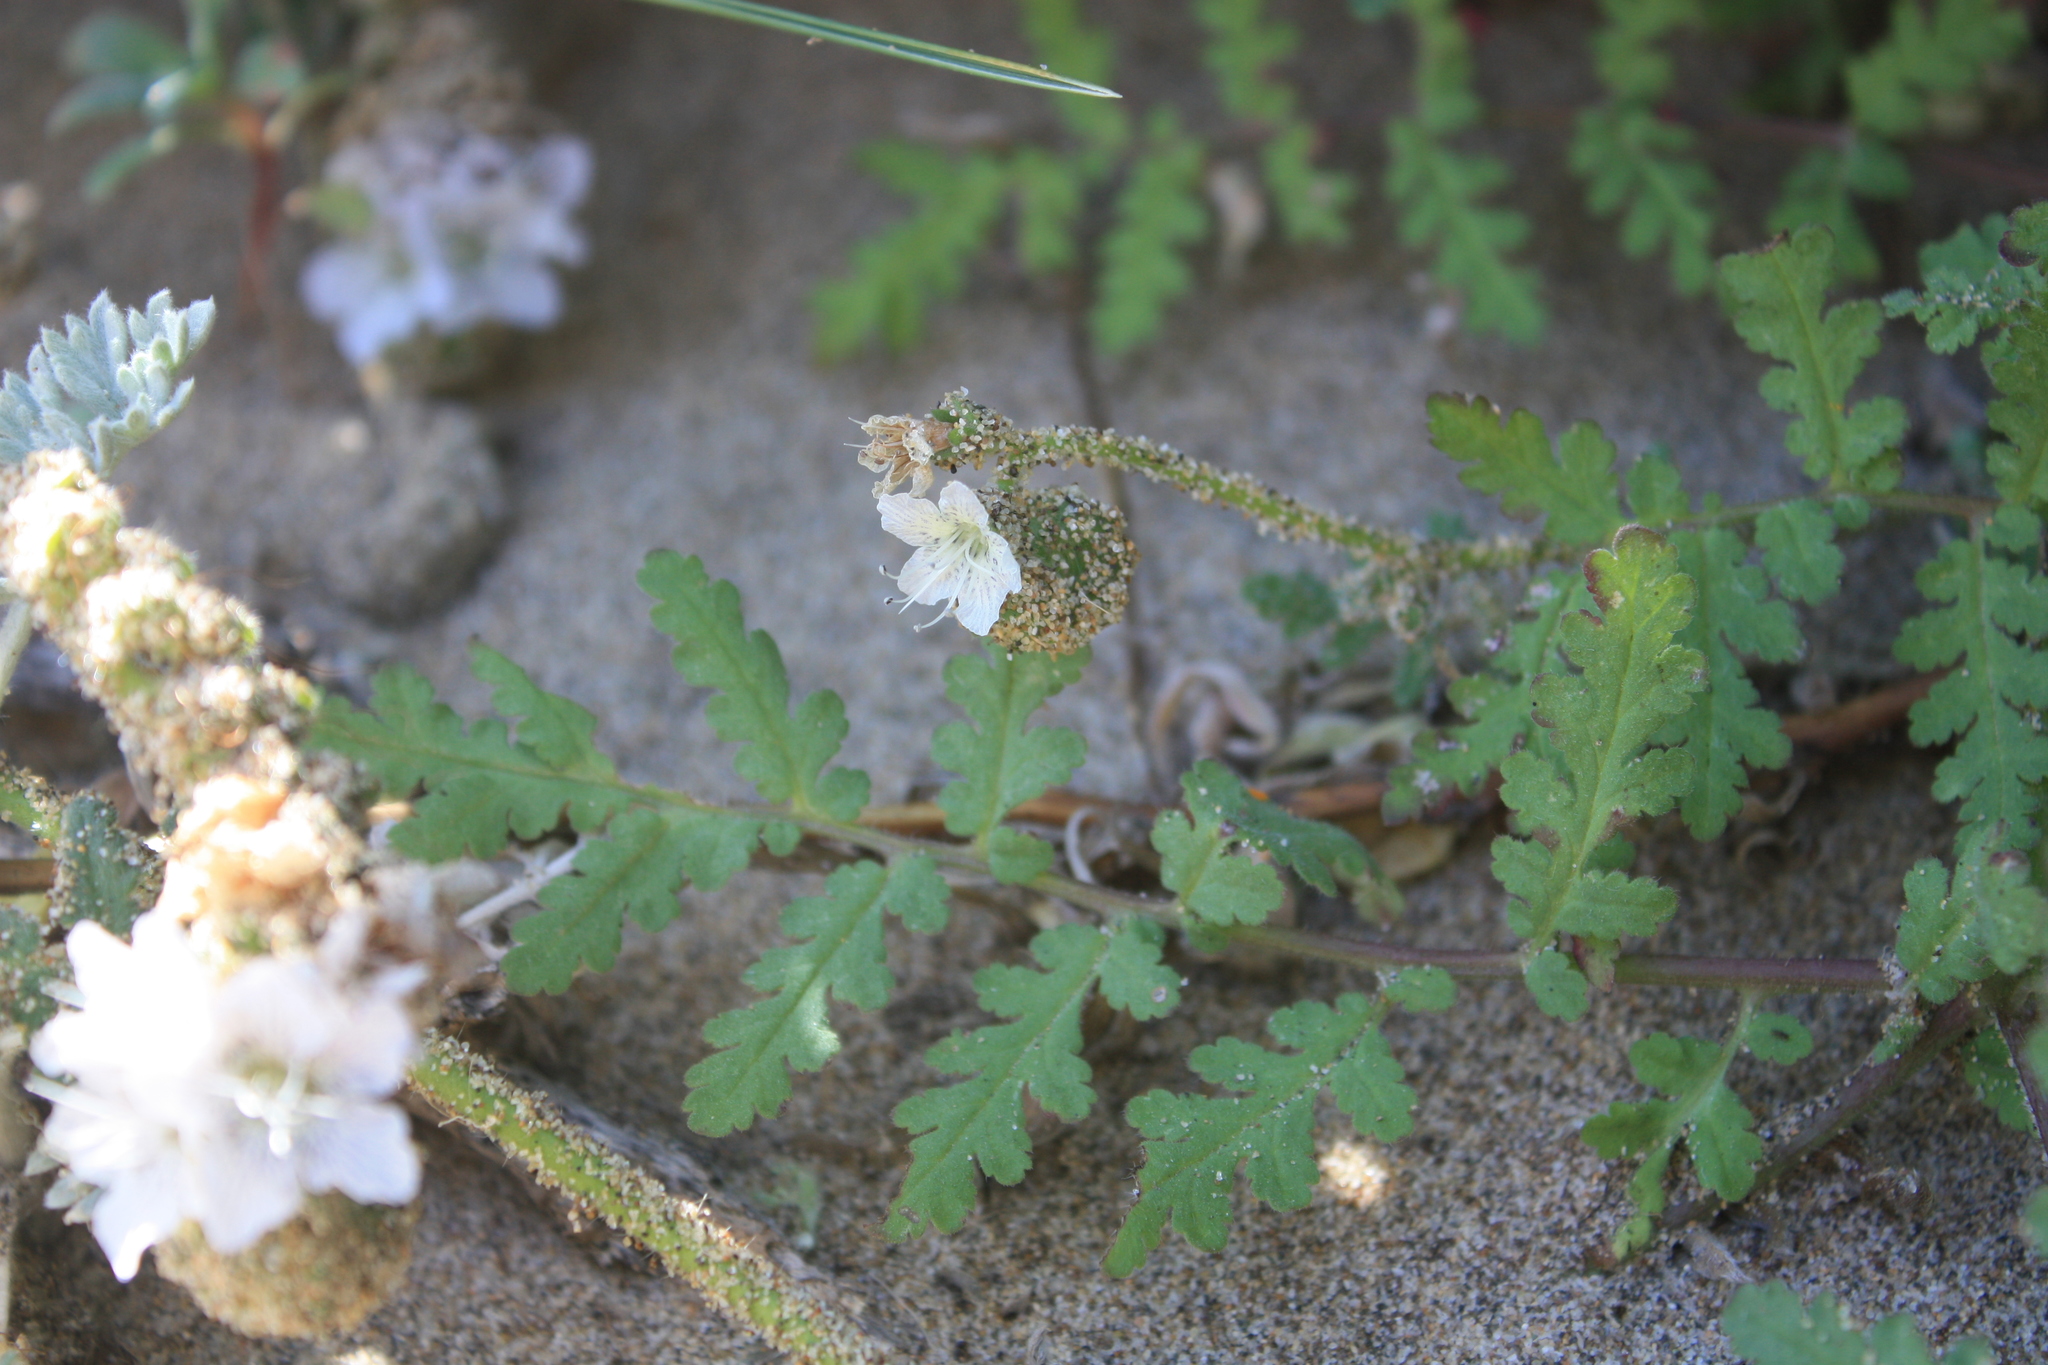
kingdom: Plantae
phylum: Tracheophyta
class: Magnoliopsida
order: Boraginales
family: Hydrophyllaceae
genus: Phacelia
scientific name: Phacelia distans
